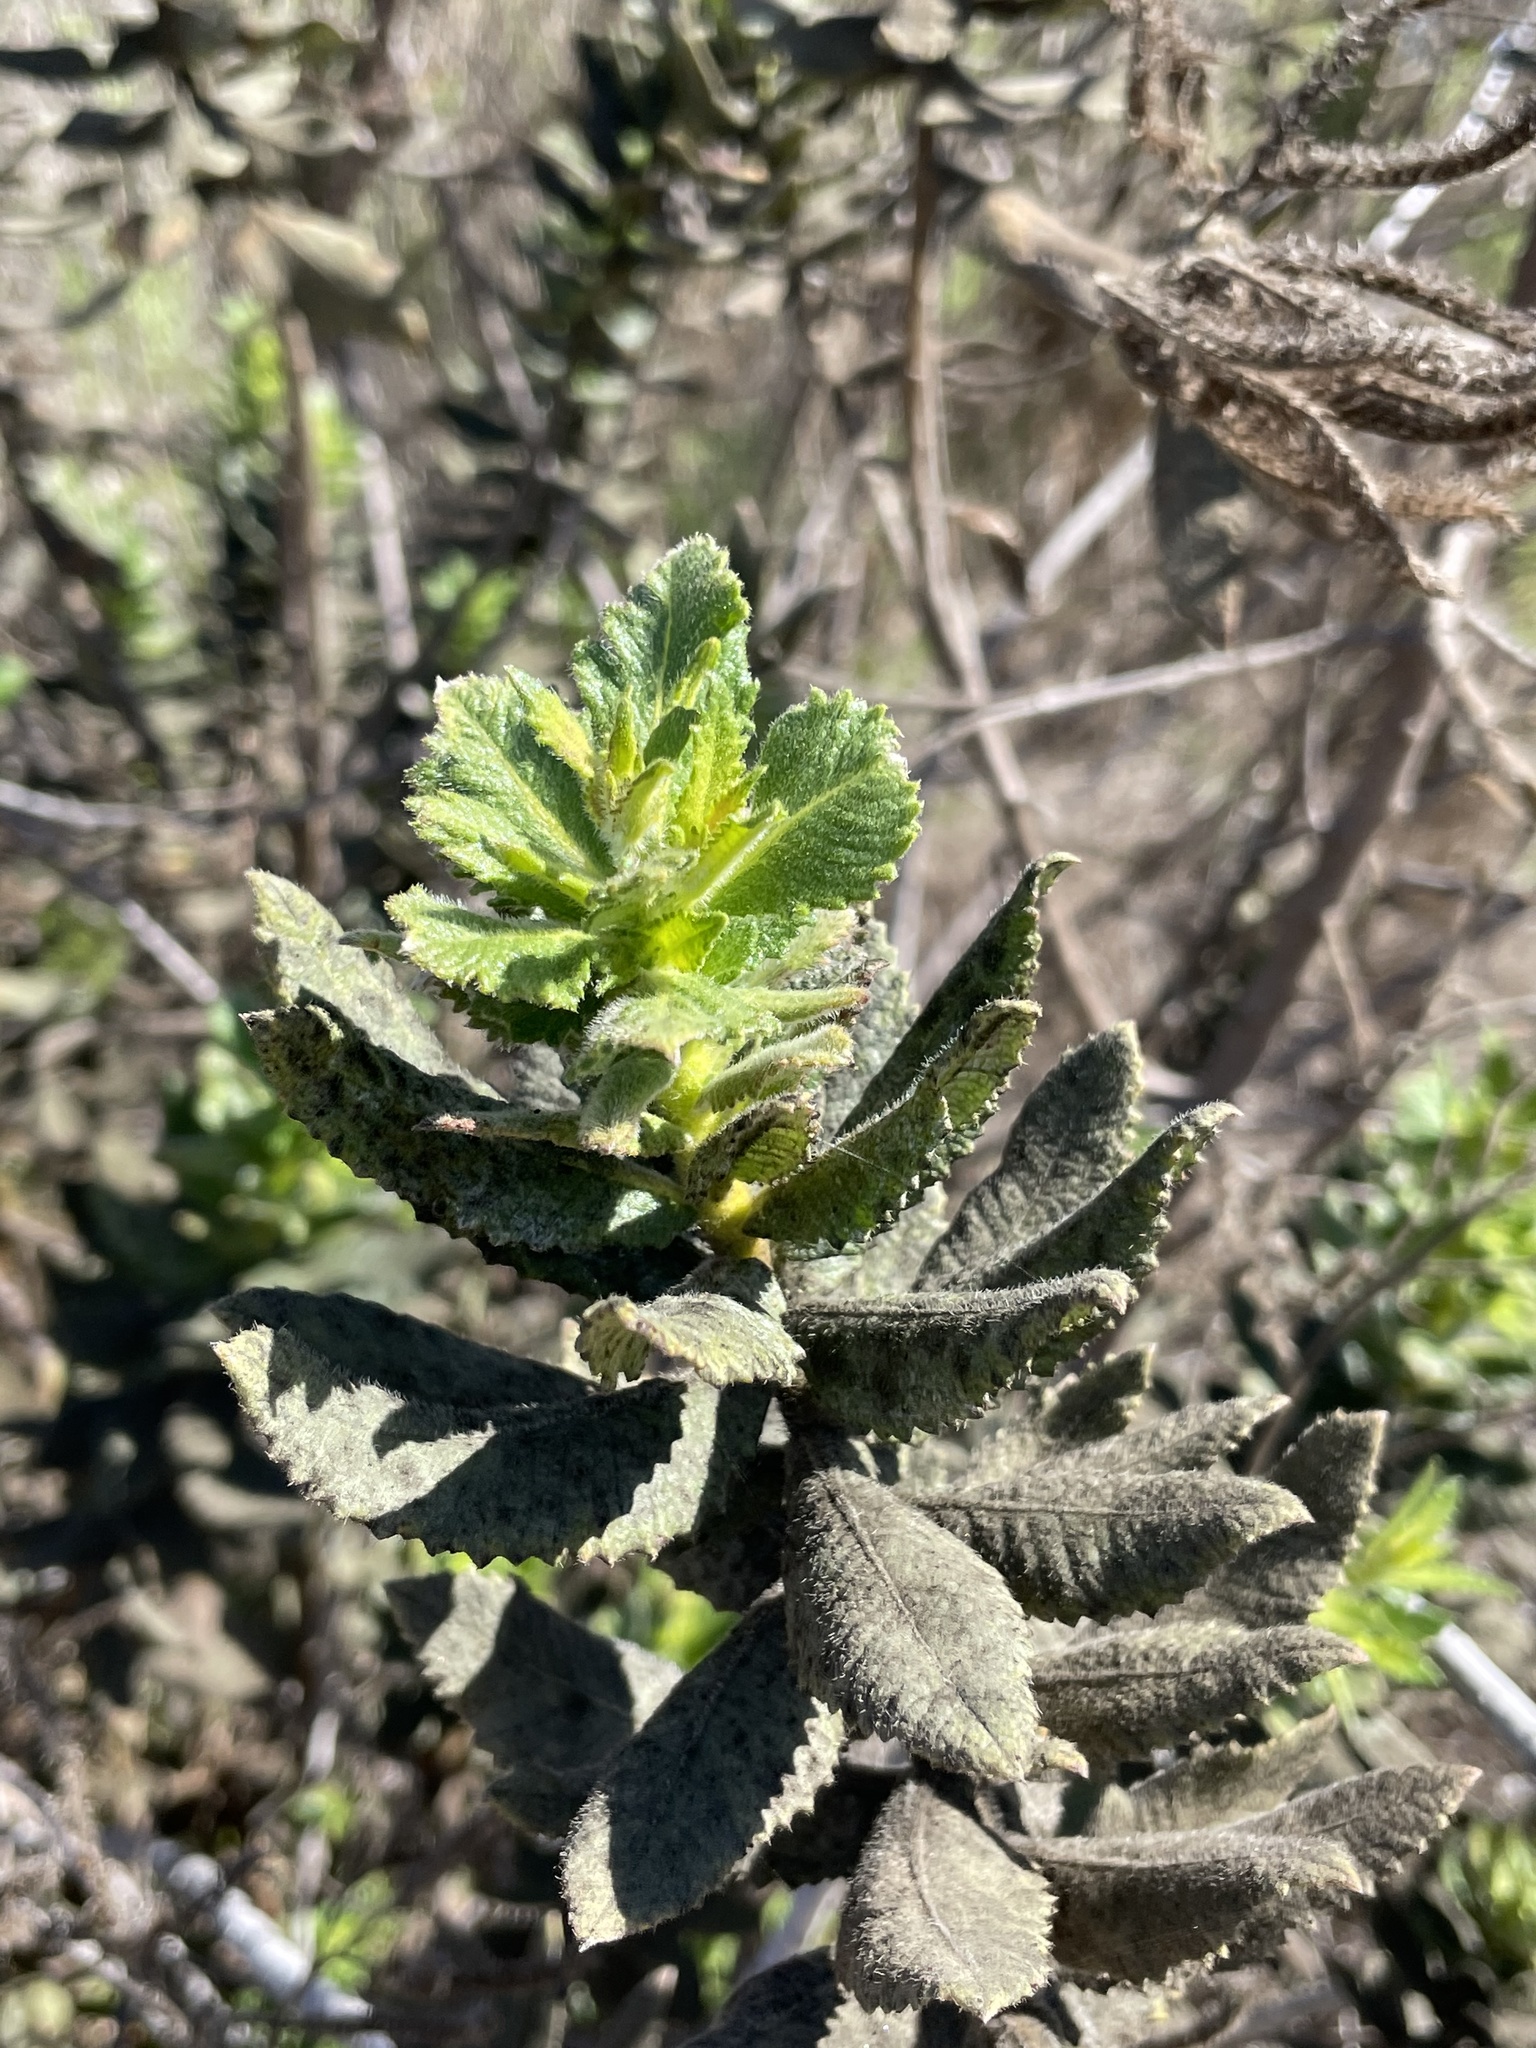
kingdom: Plantae
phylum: Tracheophyta
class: Magnoliopsida
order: Boraginales
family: Namaceae
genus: Eriodictyon
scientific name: Eriodictyon sessilifolium
